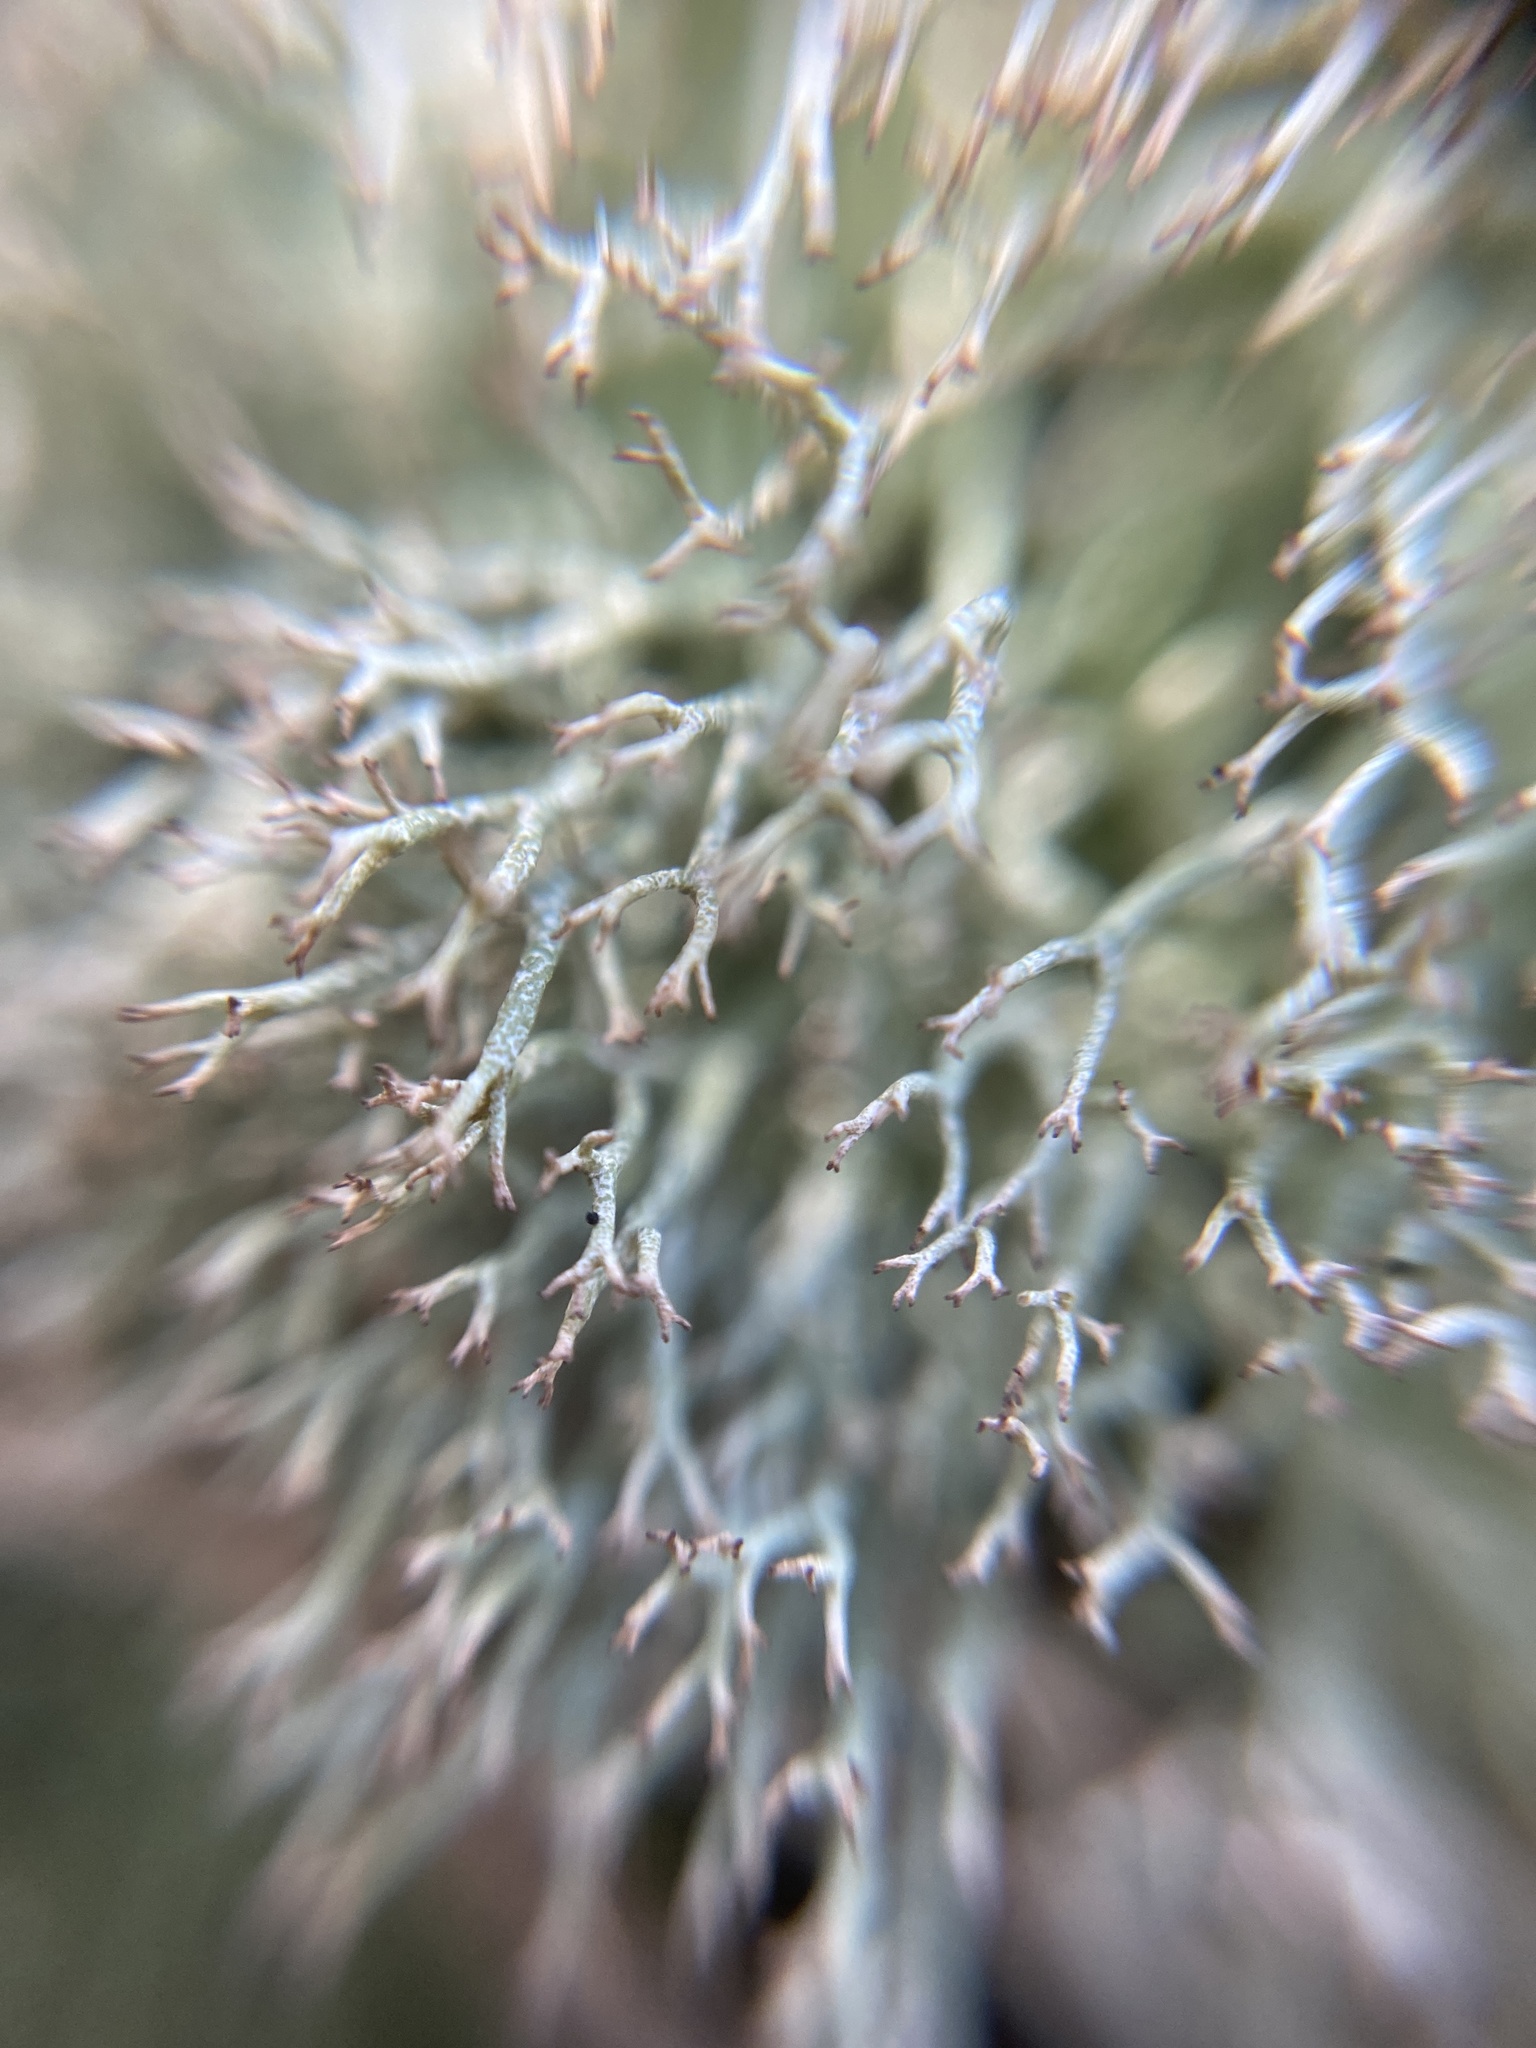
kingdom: Fungi
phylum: Ascomycota
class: Lecanoromycetes
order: Lecanorales
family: Cladoniaceae
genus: Cladonia
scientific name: Cladonia rangiformis
